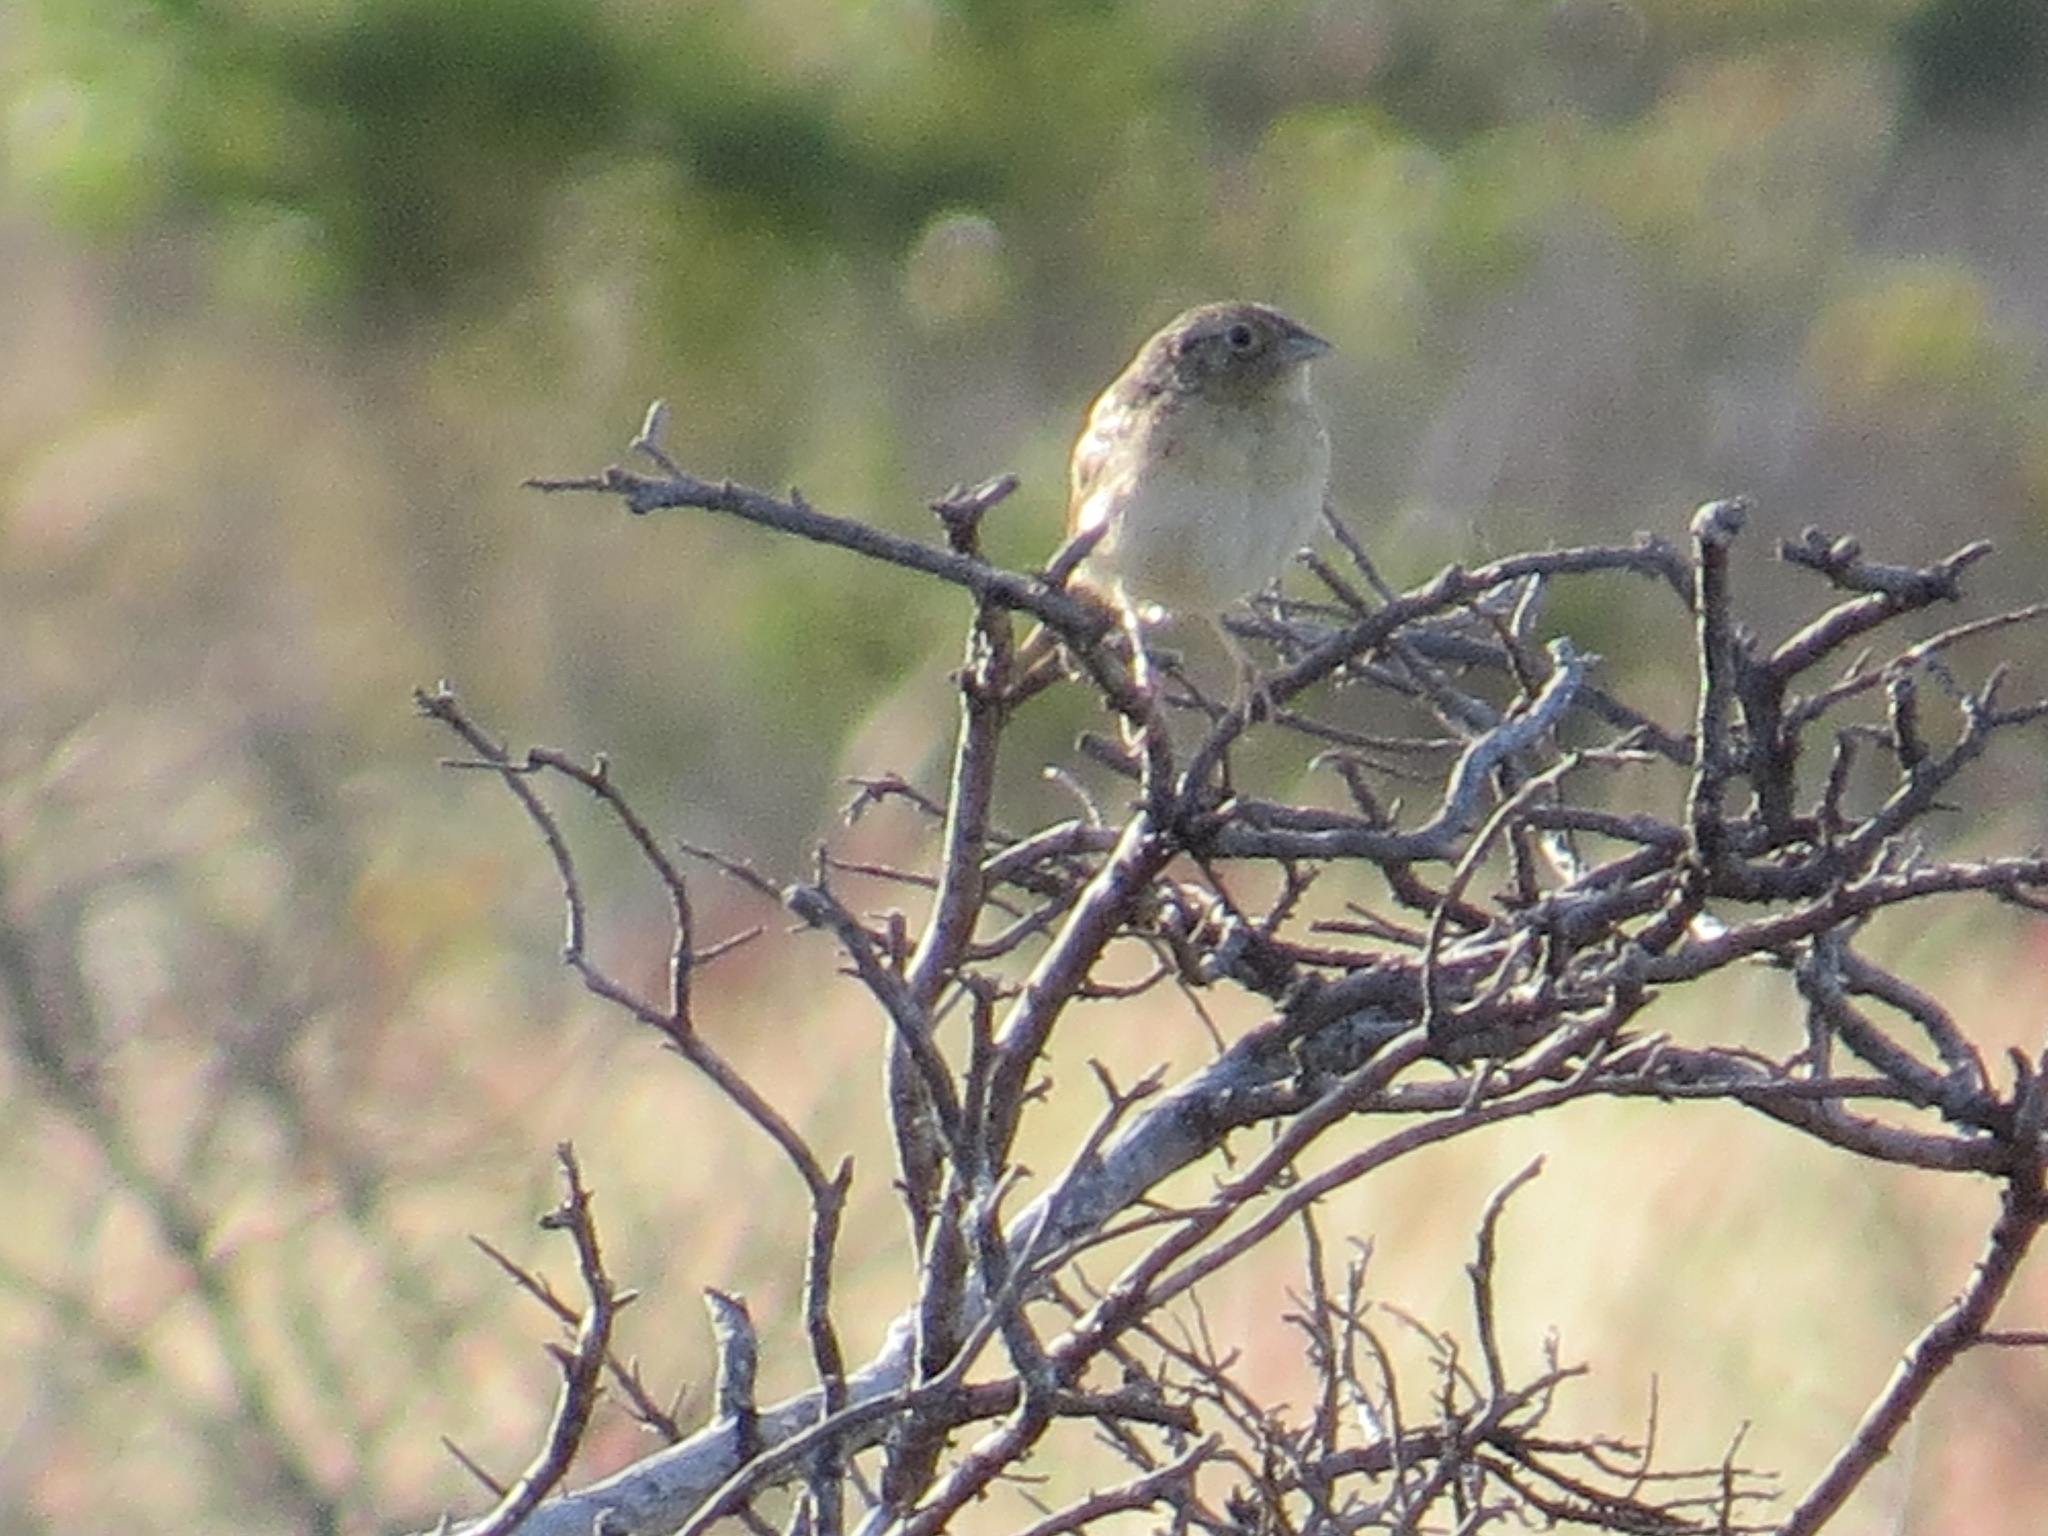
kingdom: Animalia
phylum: Chordata
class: Aves
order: Passeriformes
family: Passerellidae
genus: Ammodramus
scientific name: Ammodramus savannarum
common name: Grasshopper sparrow
